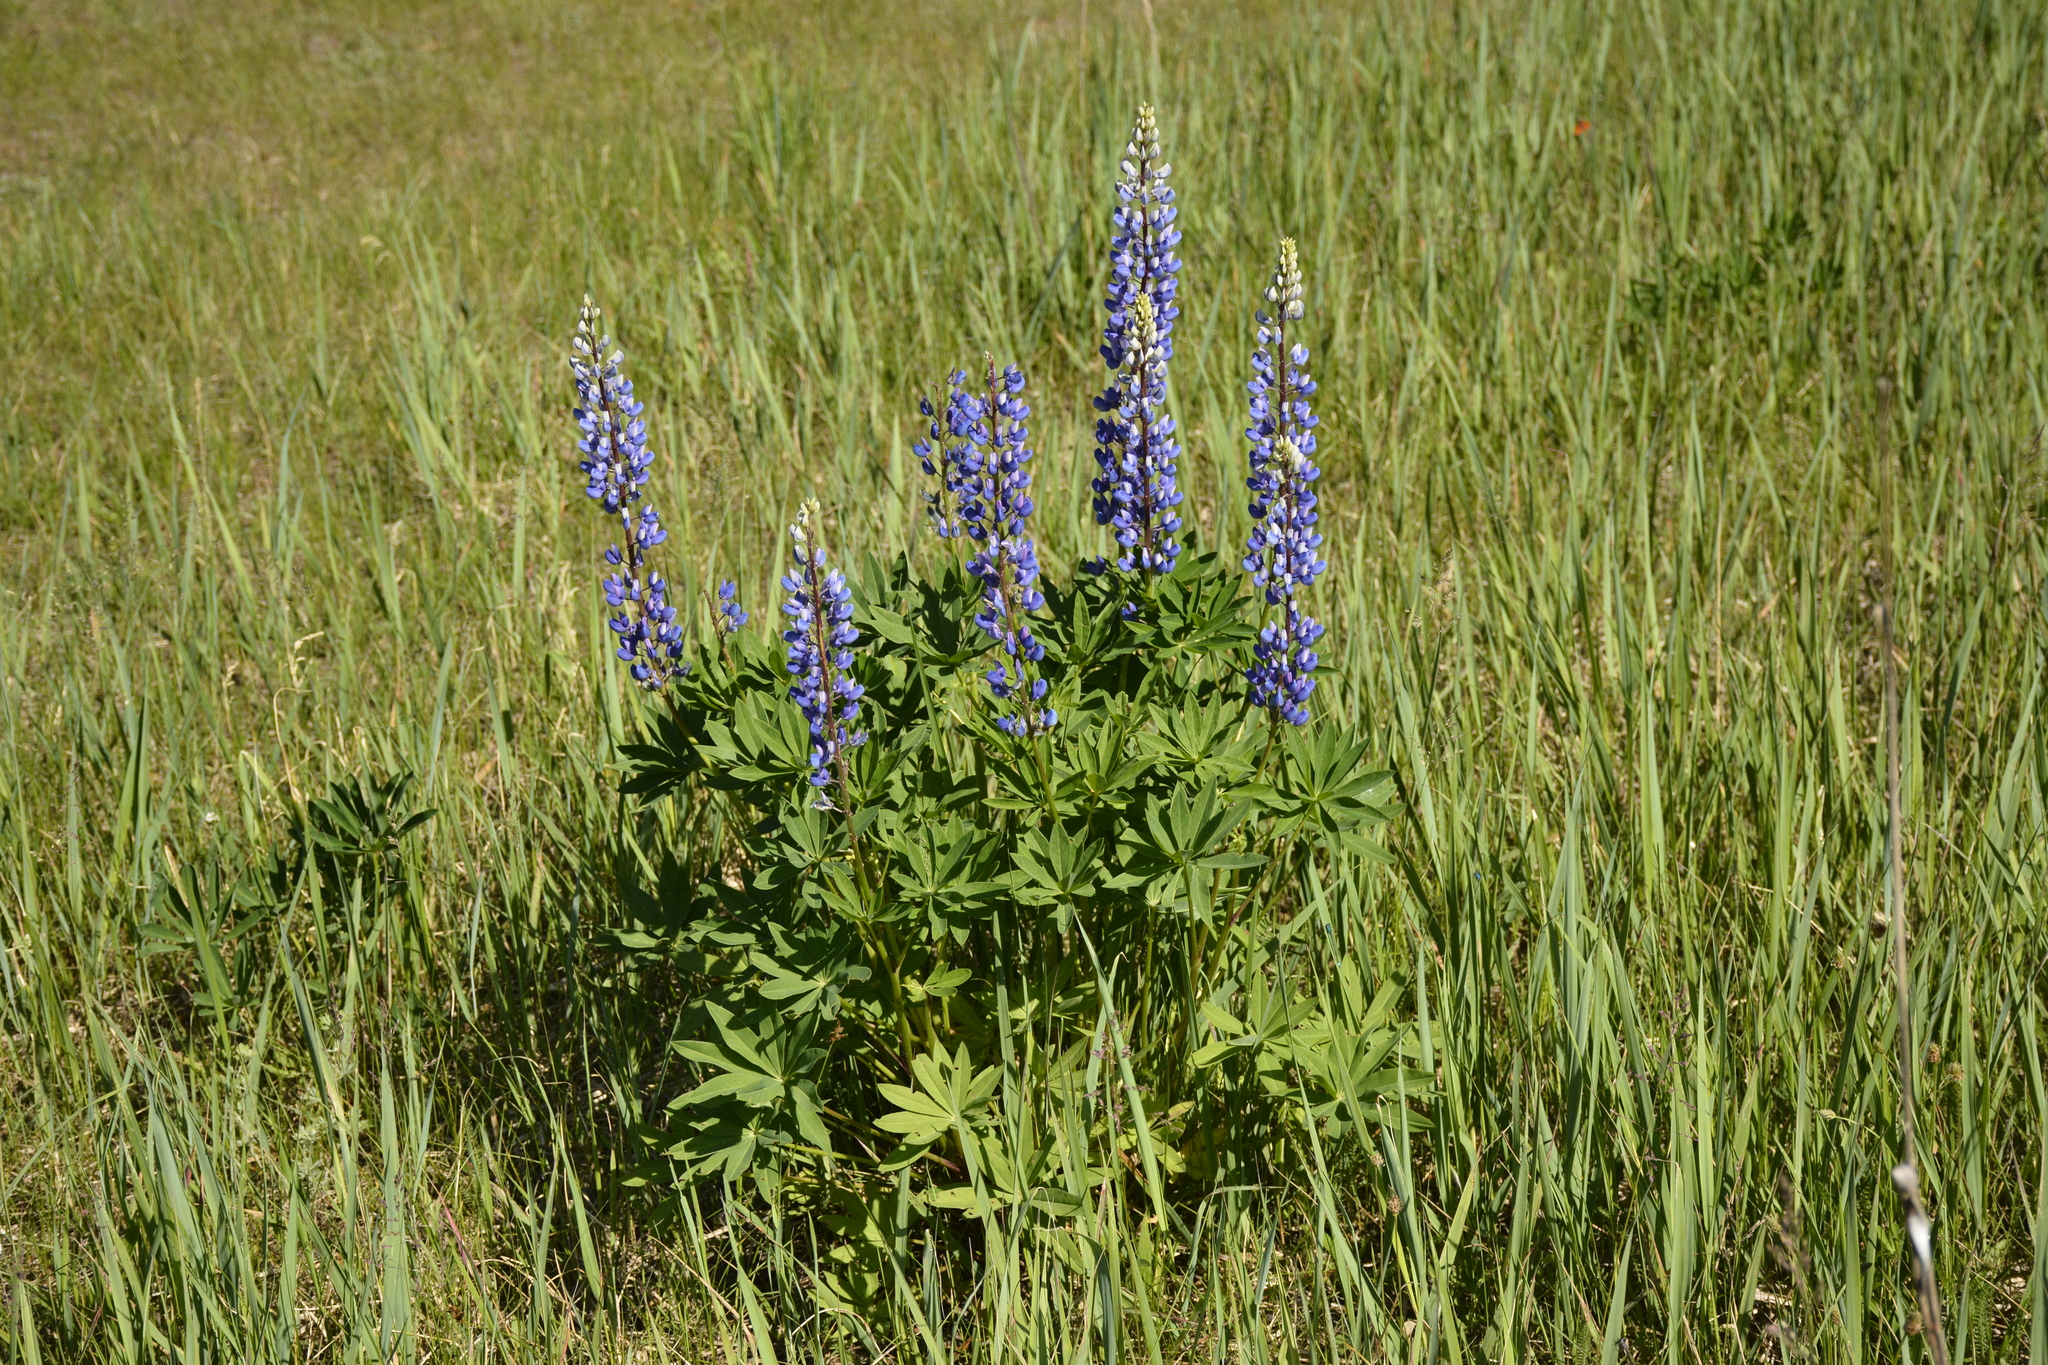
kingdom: Plantae
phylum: Tracheophyta
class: Magnoliopsida
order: Fabales
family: Fabaceae
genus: Lupinus
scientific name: Lupinus polyphyllus
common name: Garden lupin
